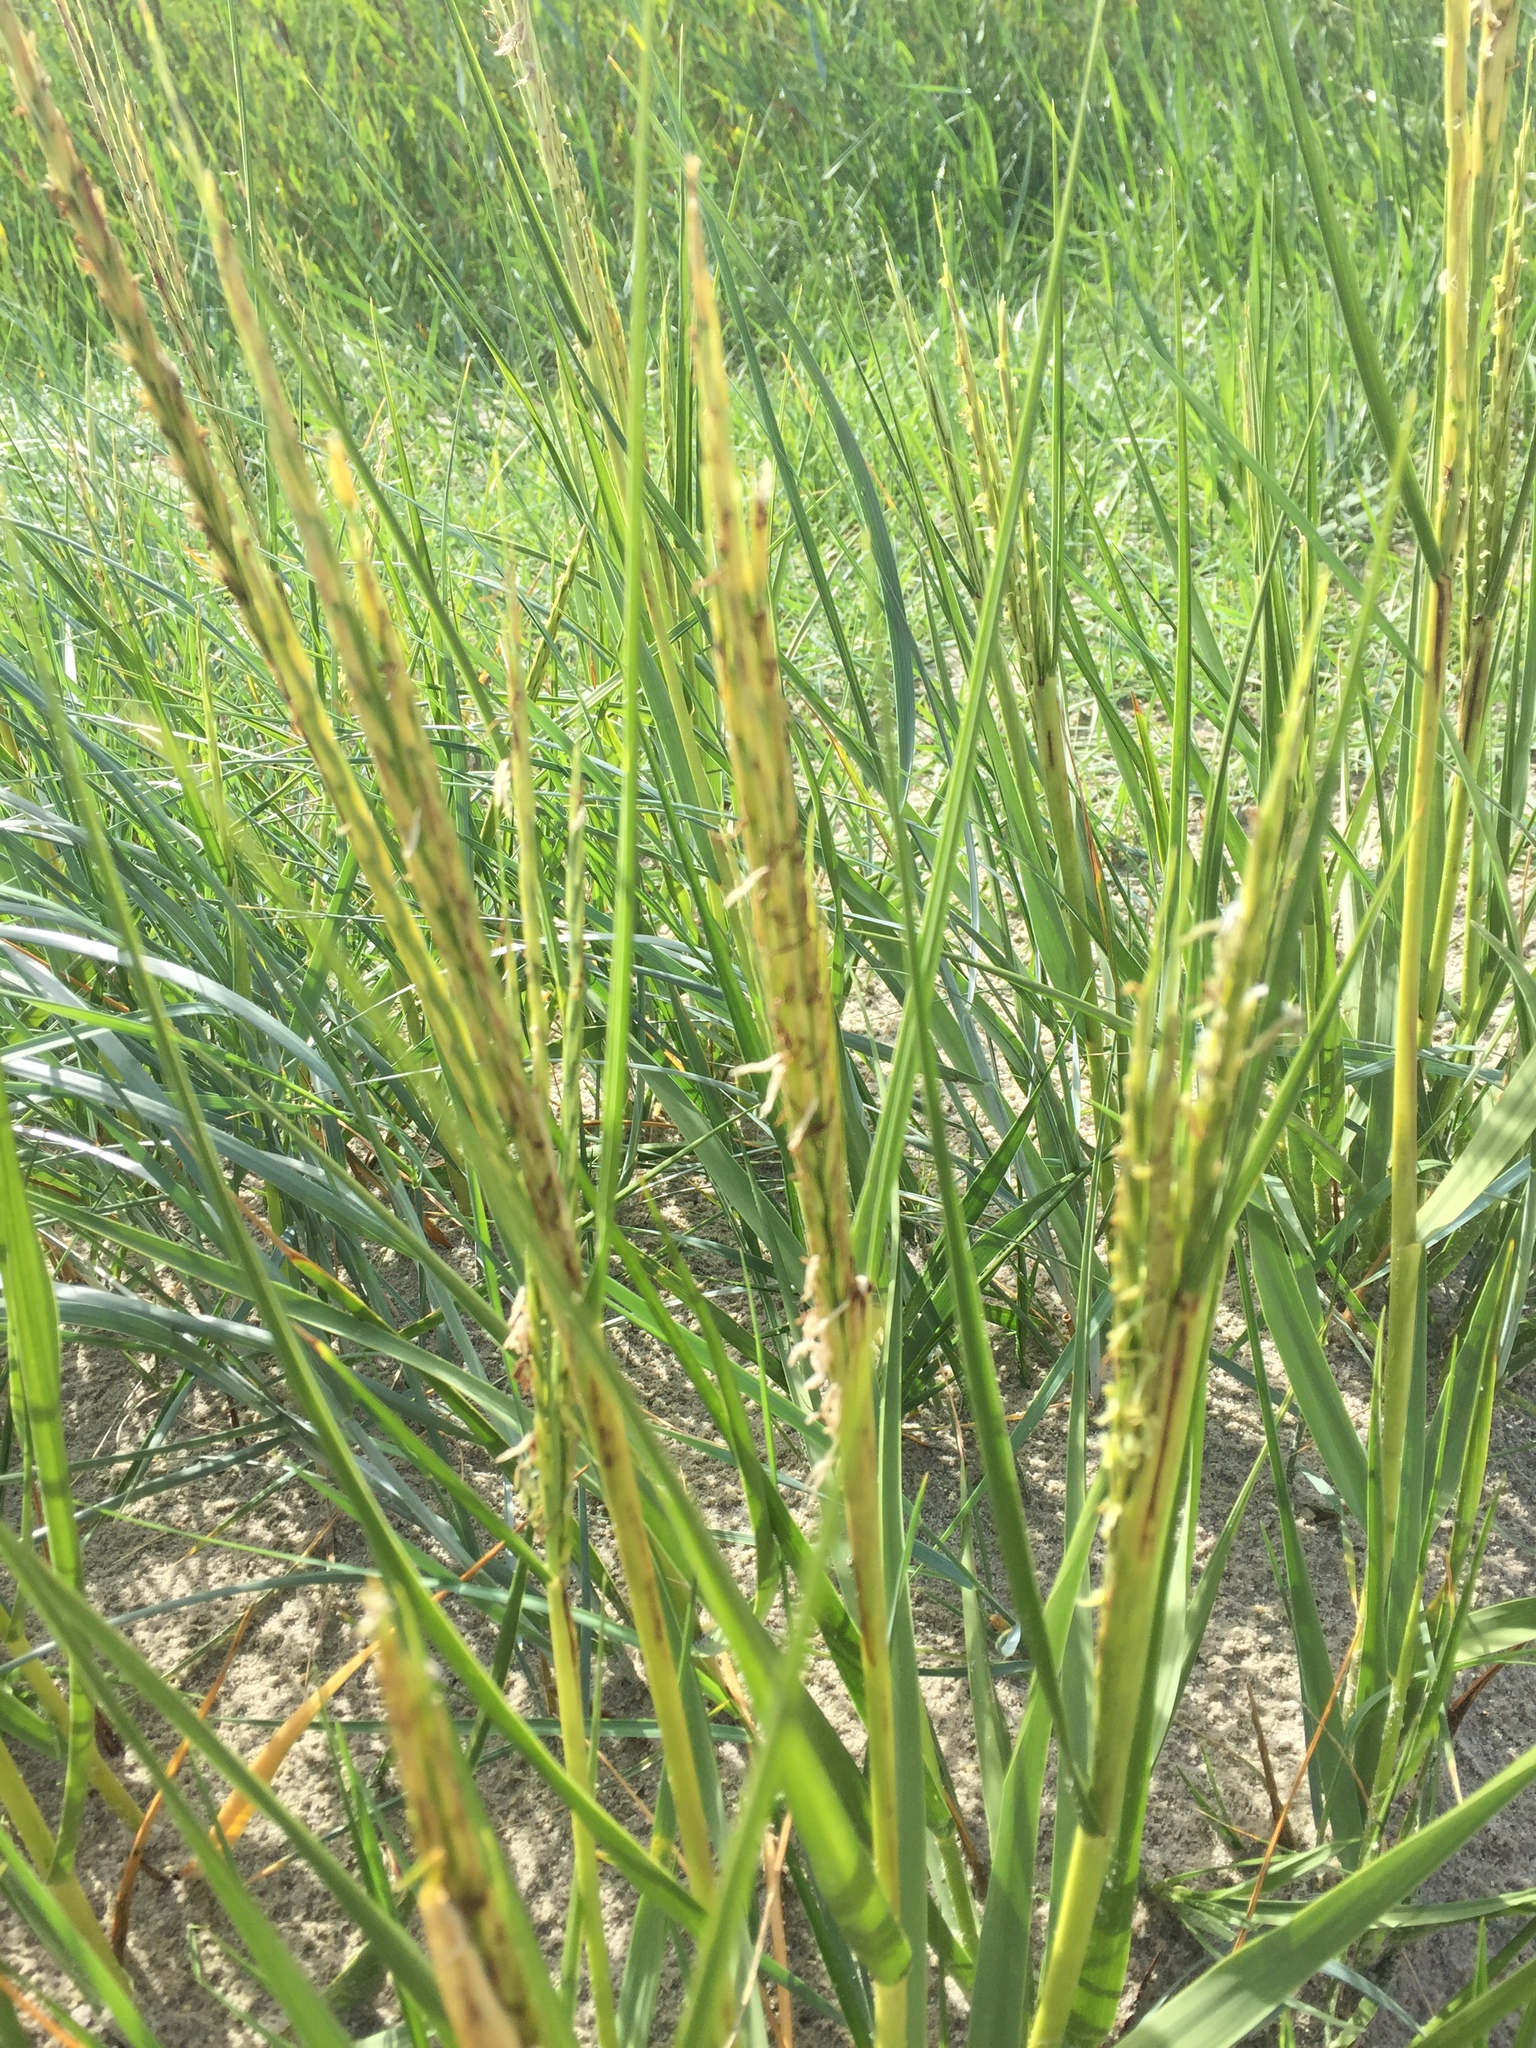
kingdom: Plantae
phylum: Tracheophyta
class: Liliopsida
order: Poales
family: Poaceae
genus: Sporobolus
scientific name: Sporobolus anglicus
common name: English cordgrass
